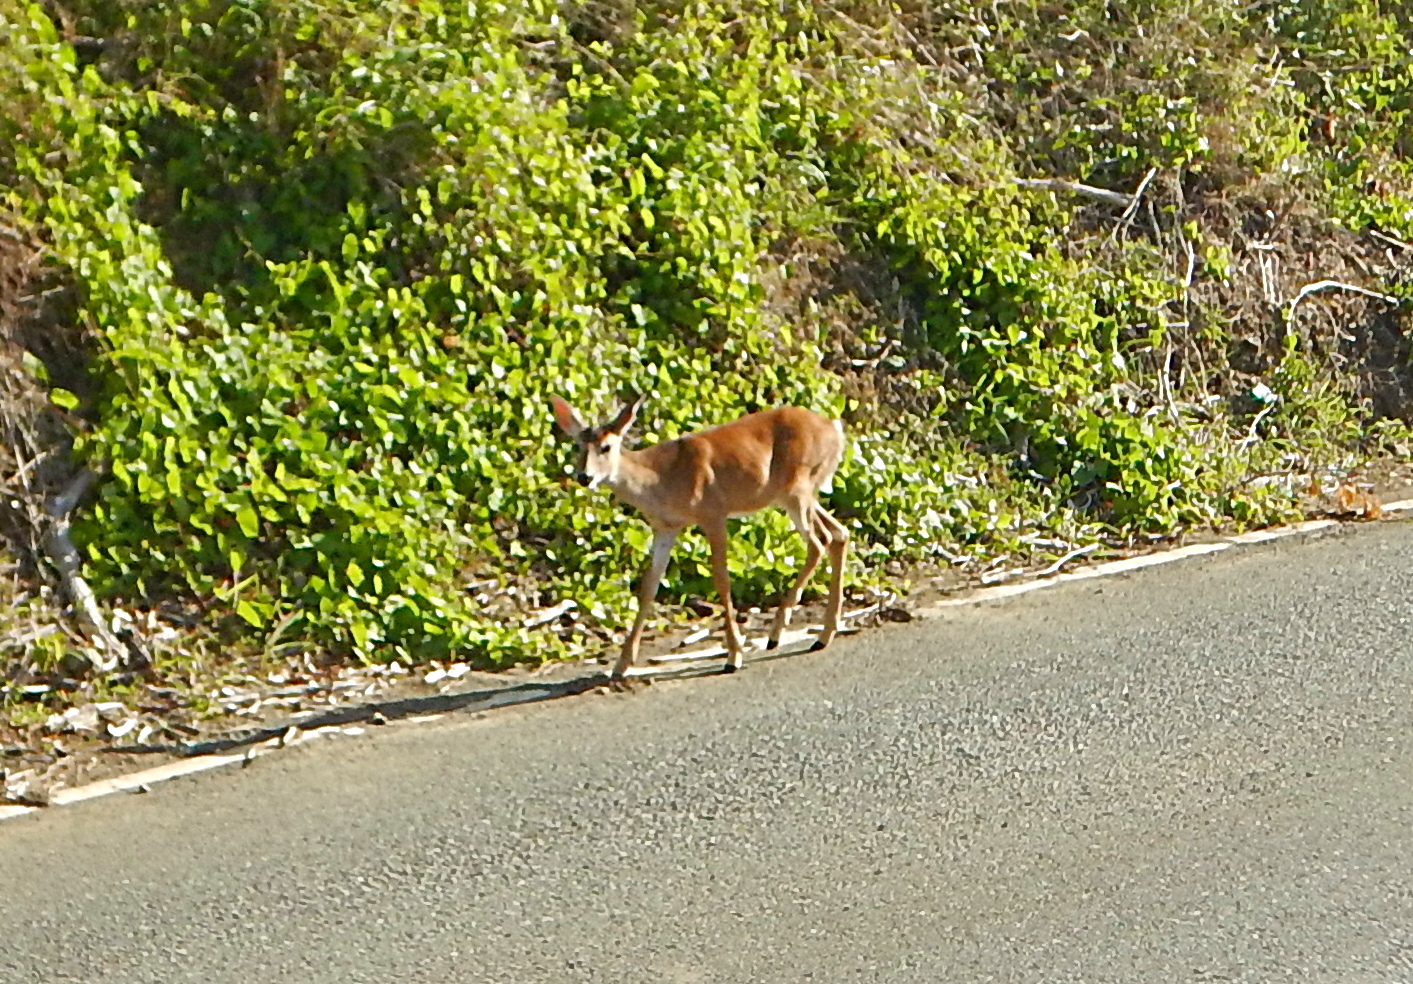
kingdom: Animalia
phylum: Chordata
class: Mammalia
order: Artiodactyla
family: Cervidae
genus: Odocoileus
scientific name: Odocoileus virginianus
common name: White-tailed deer
